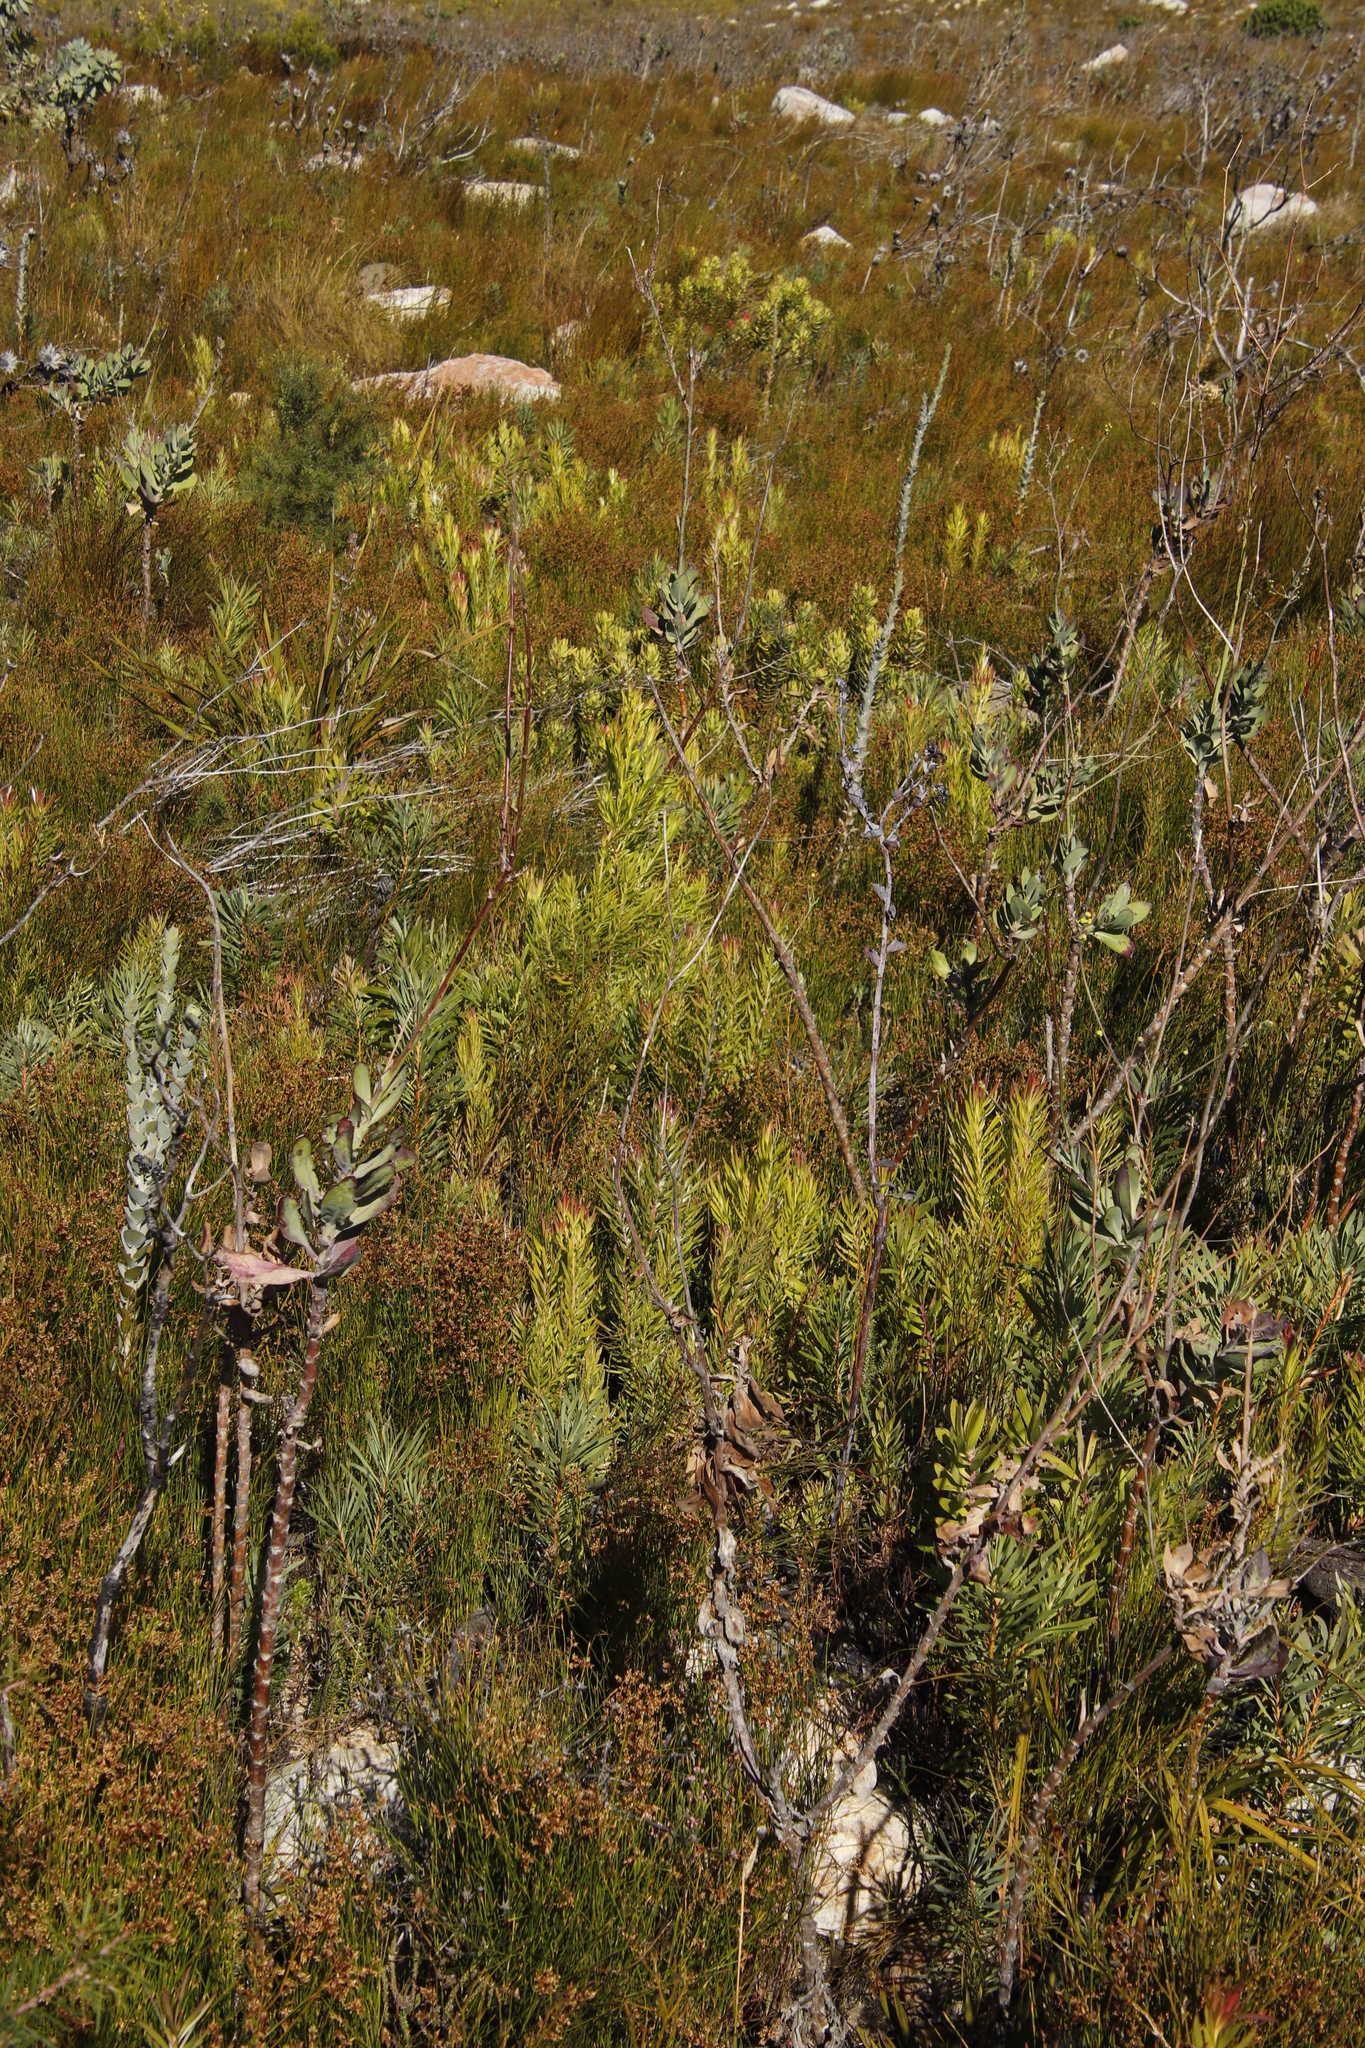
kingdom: Plantae
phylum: Tracheophyta
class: Magnoliopsida
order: Proteales
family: Proteaceae
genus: Leucadendron
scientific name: Leucadendron xanthoconus
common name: Sickle-leaf conebush
